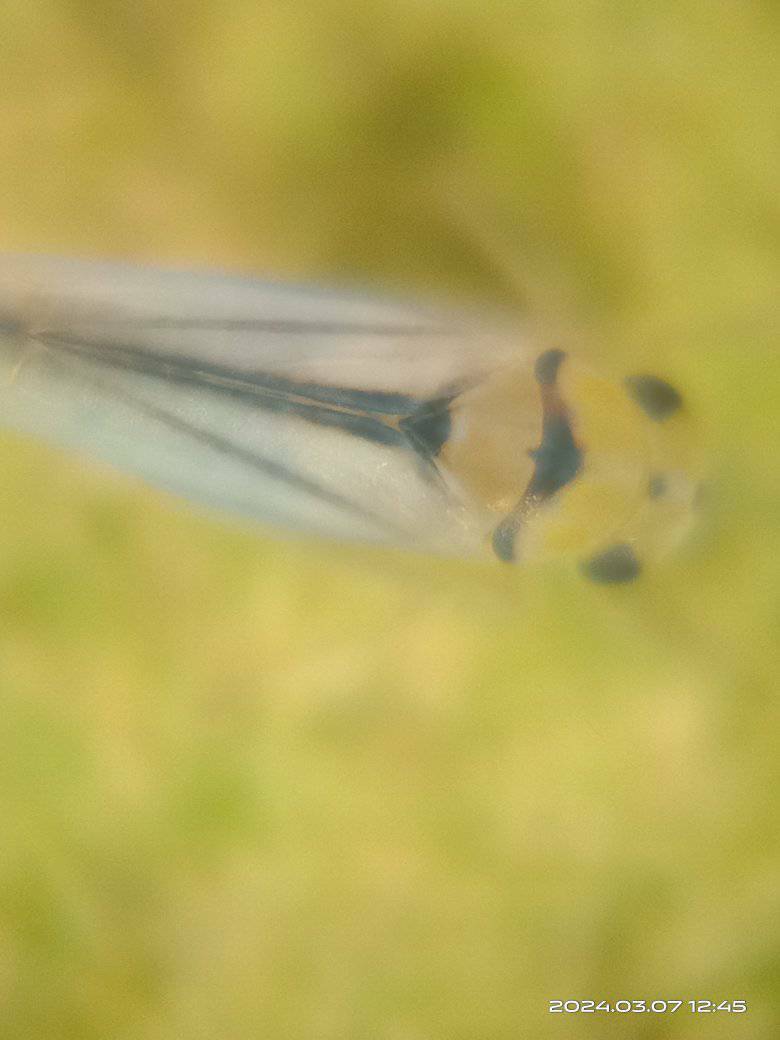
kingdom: Animalia
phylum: Arthropoda
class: Insecta
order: Hemiptera
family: Cicadellidae
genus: Singapora
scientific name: Singapora nigropunctata
